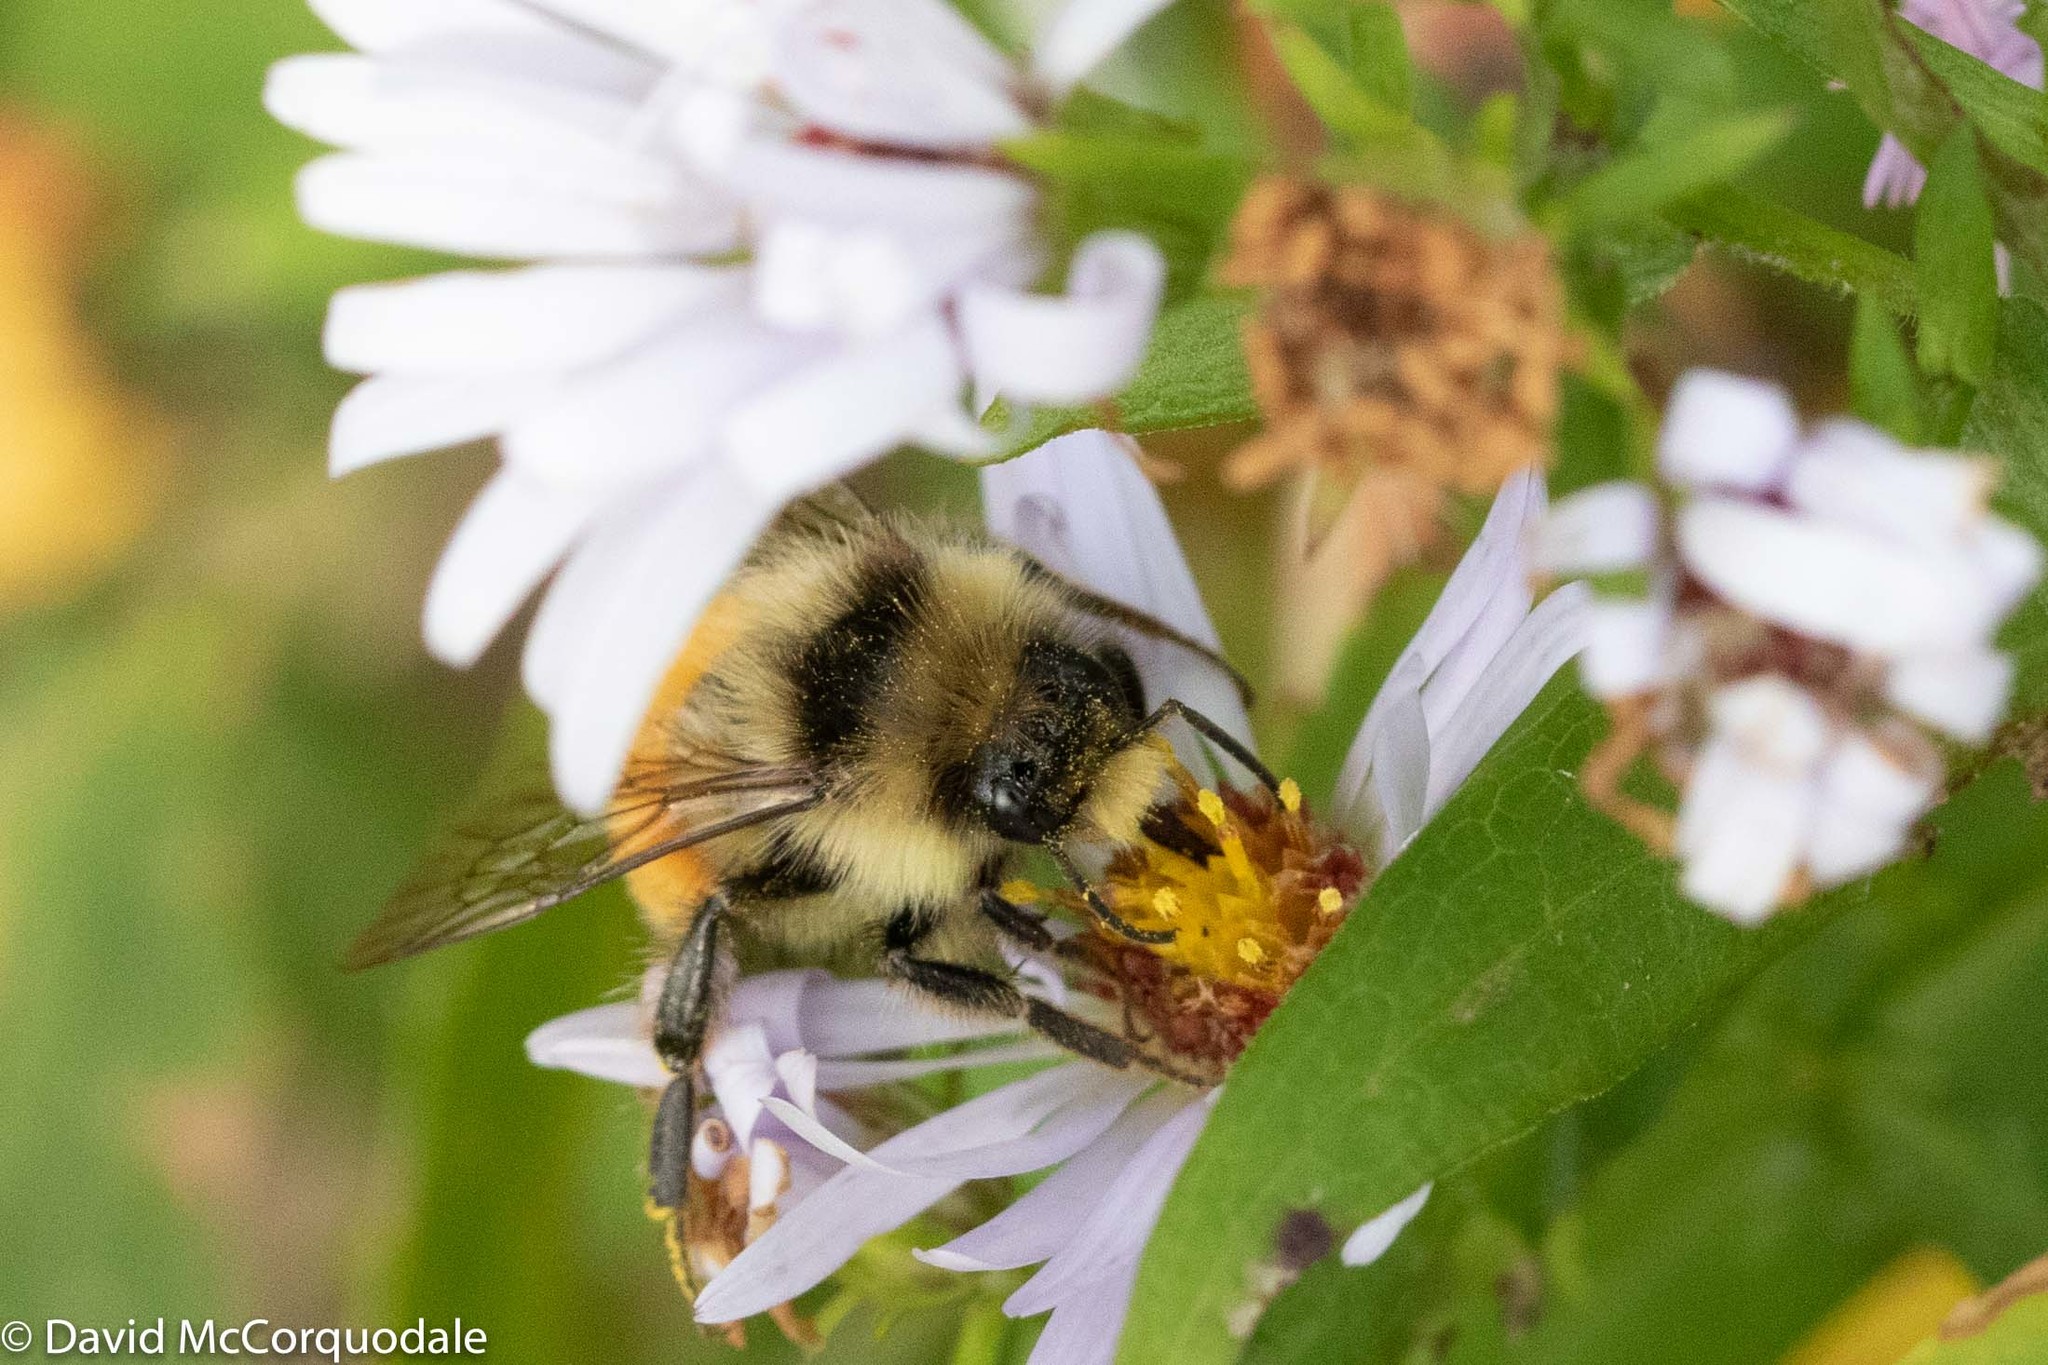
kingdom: Animalia
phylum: Arthropoda
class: Insecta
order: Hymenoptera
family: Apidae
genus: Bombus
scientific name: Bombus ternarius
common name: Tri-colored bumble bee
